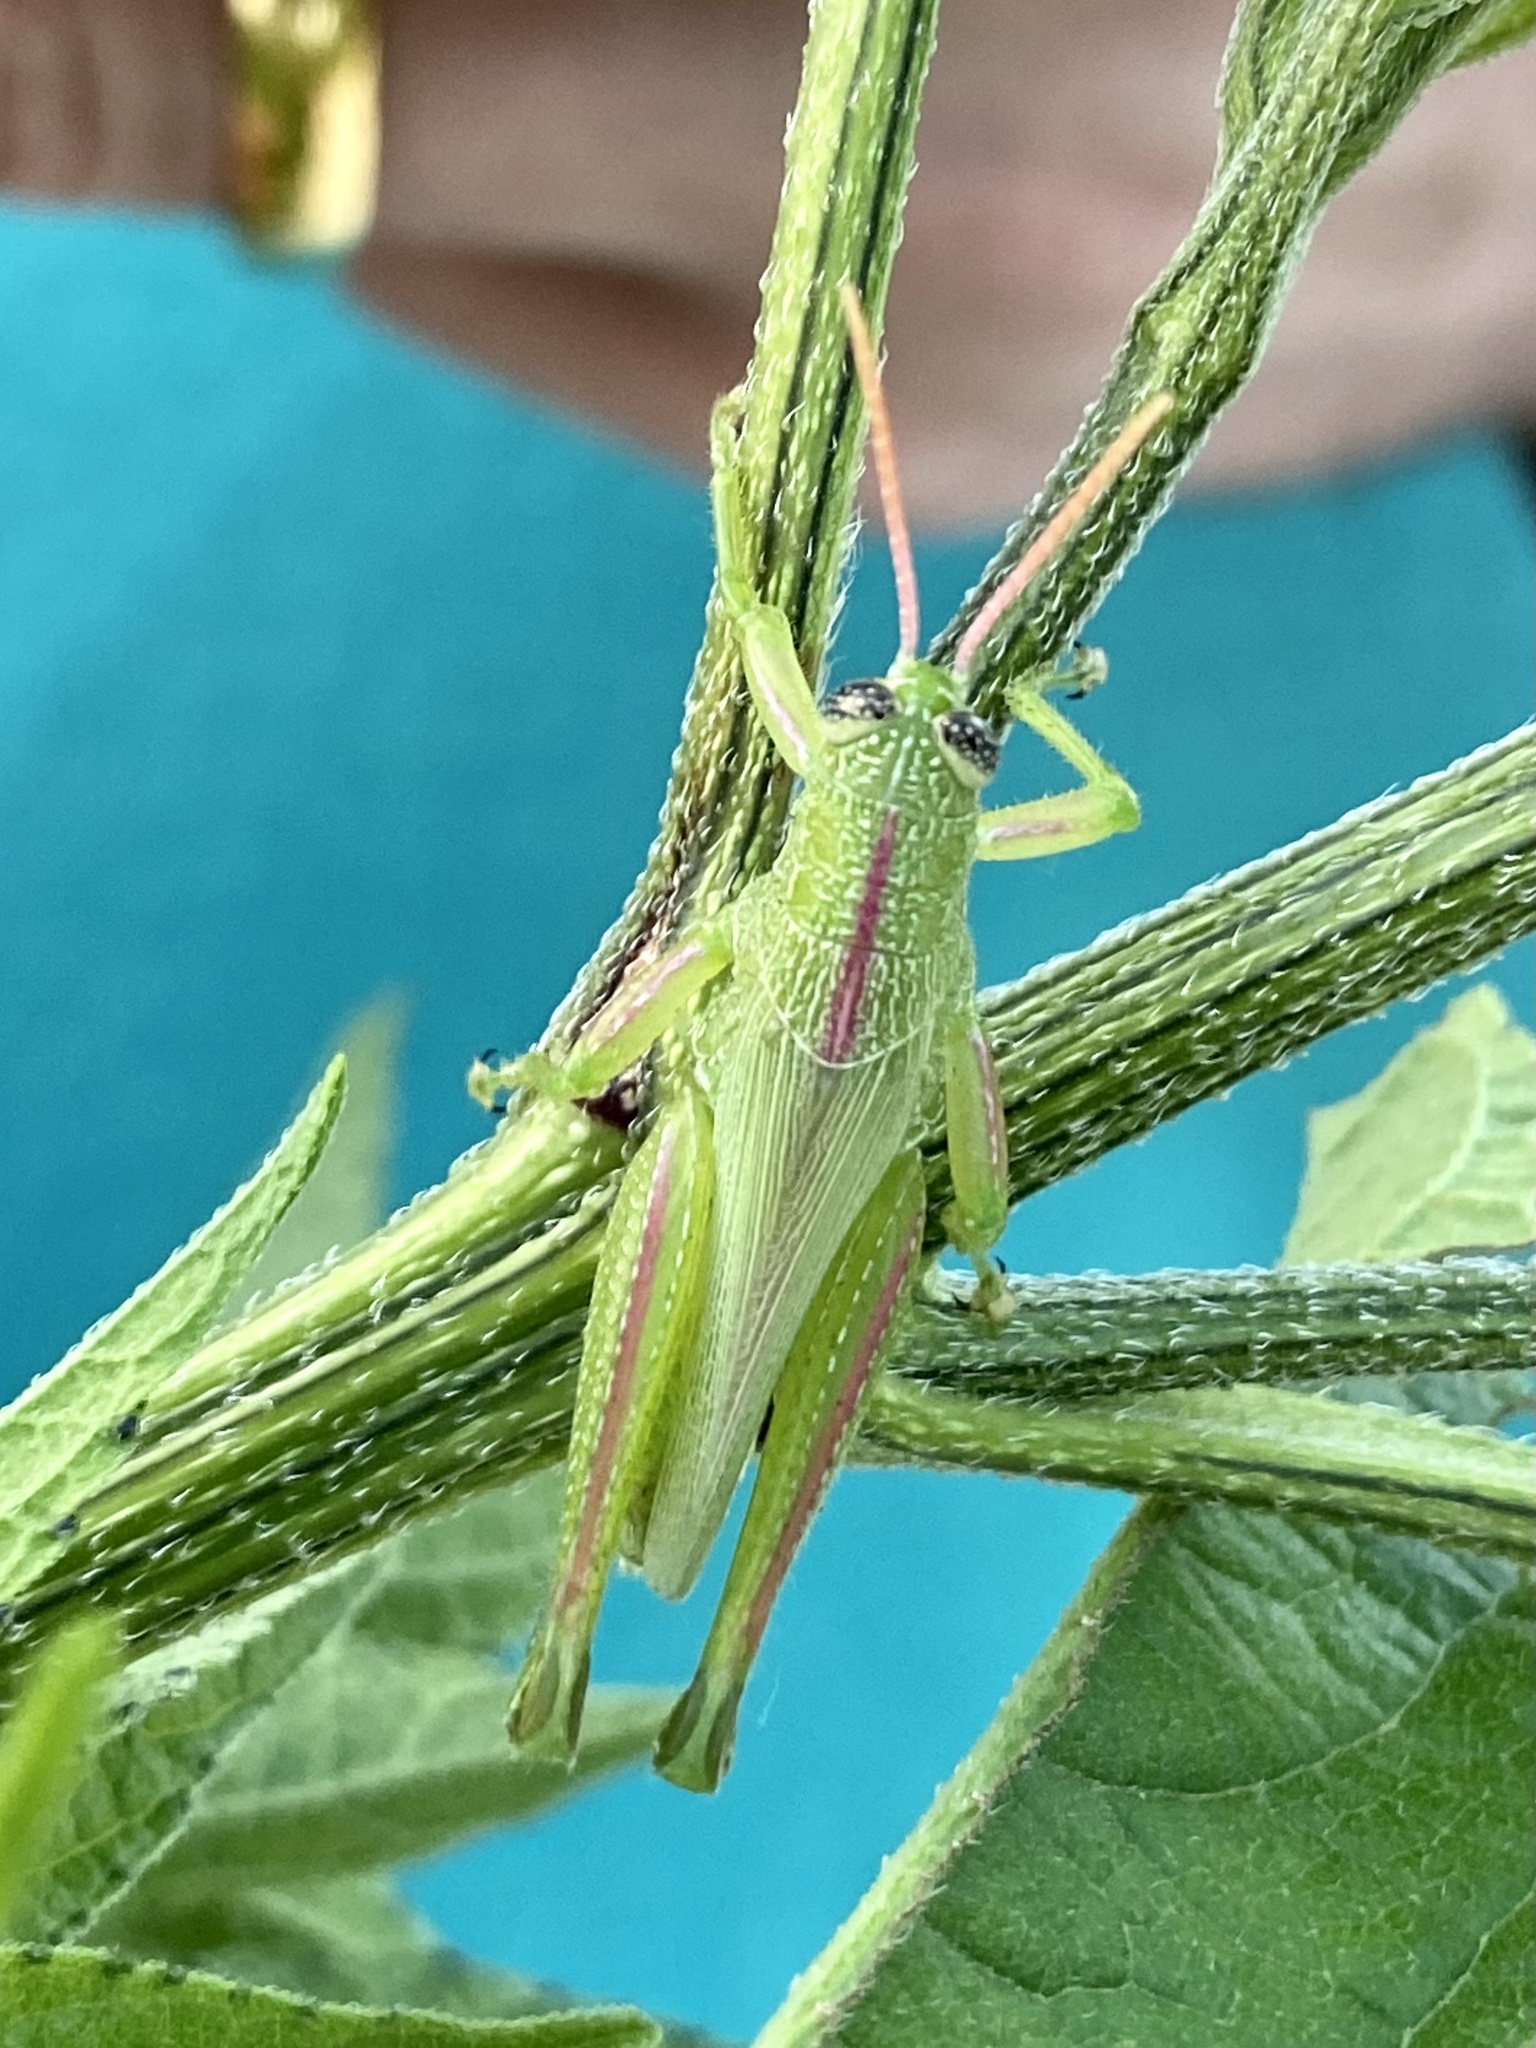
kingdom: Animalia
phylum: Arthropoda
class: Insecta
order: Orthoptera
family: Acrididae
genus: Hesperotettix
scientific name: Hesperotettix speciosus
